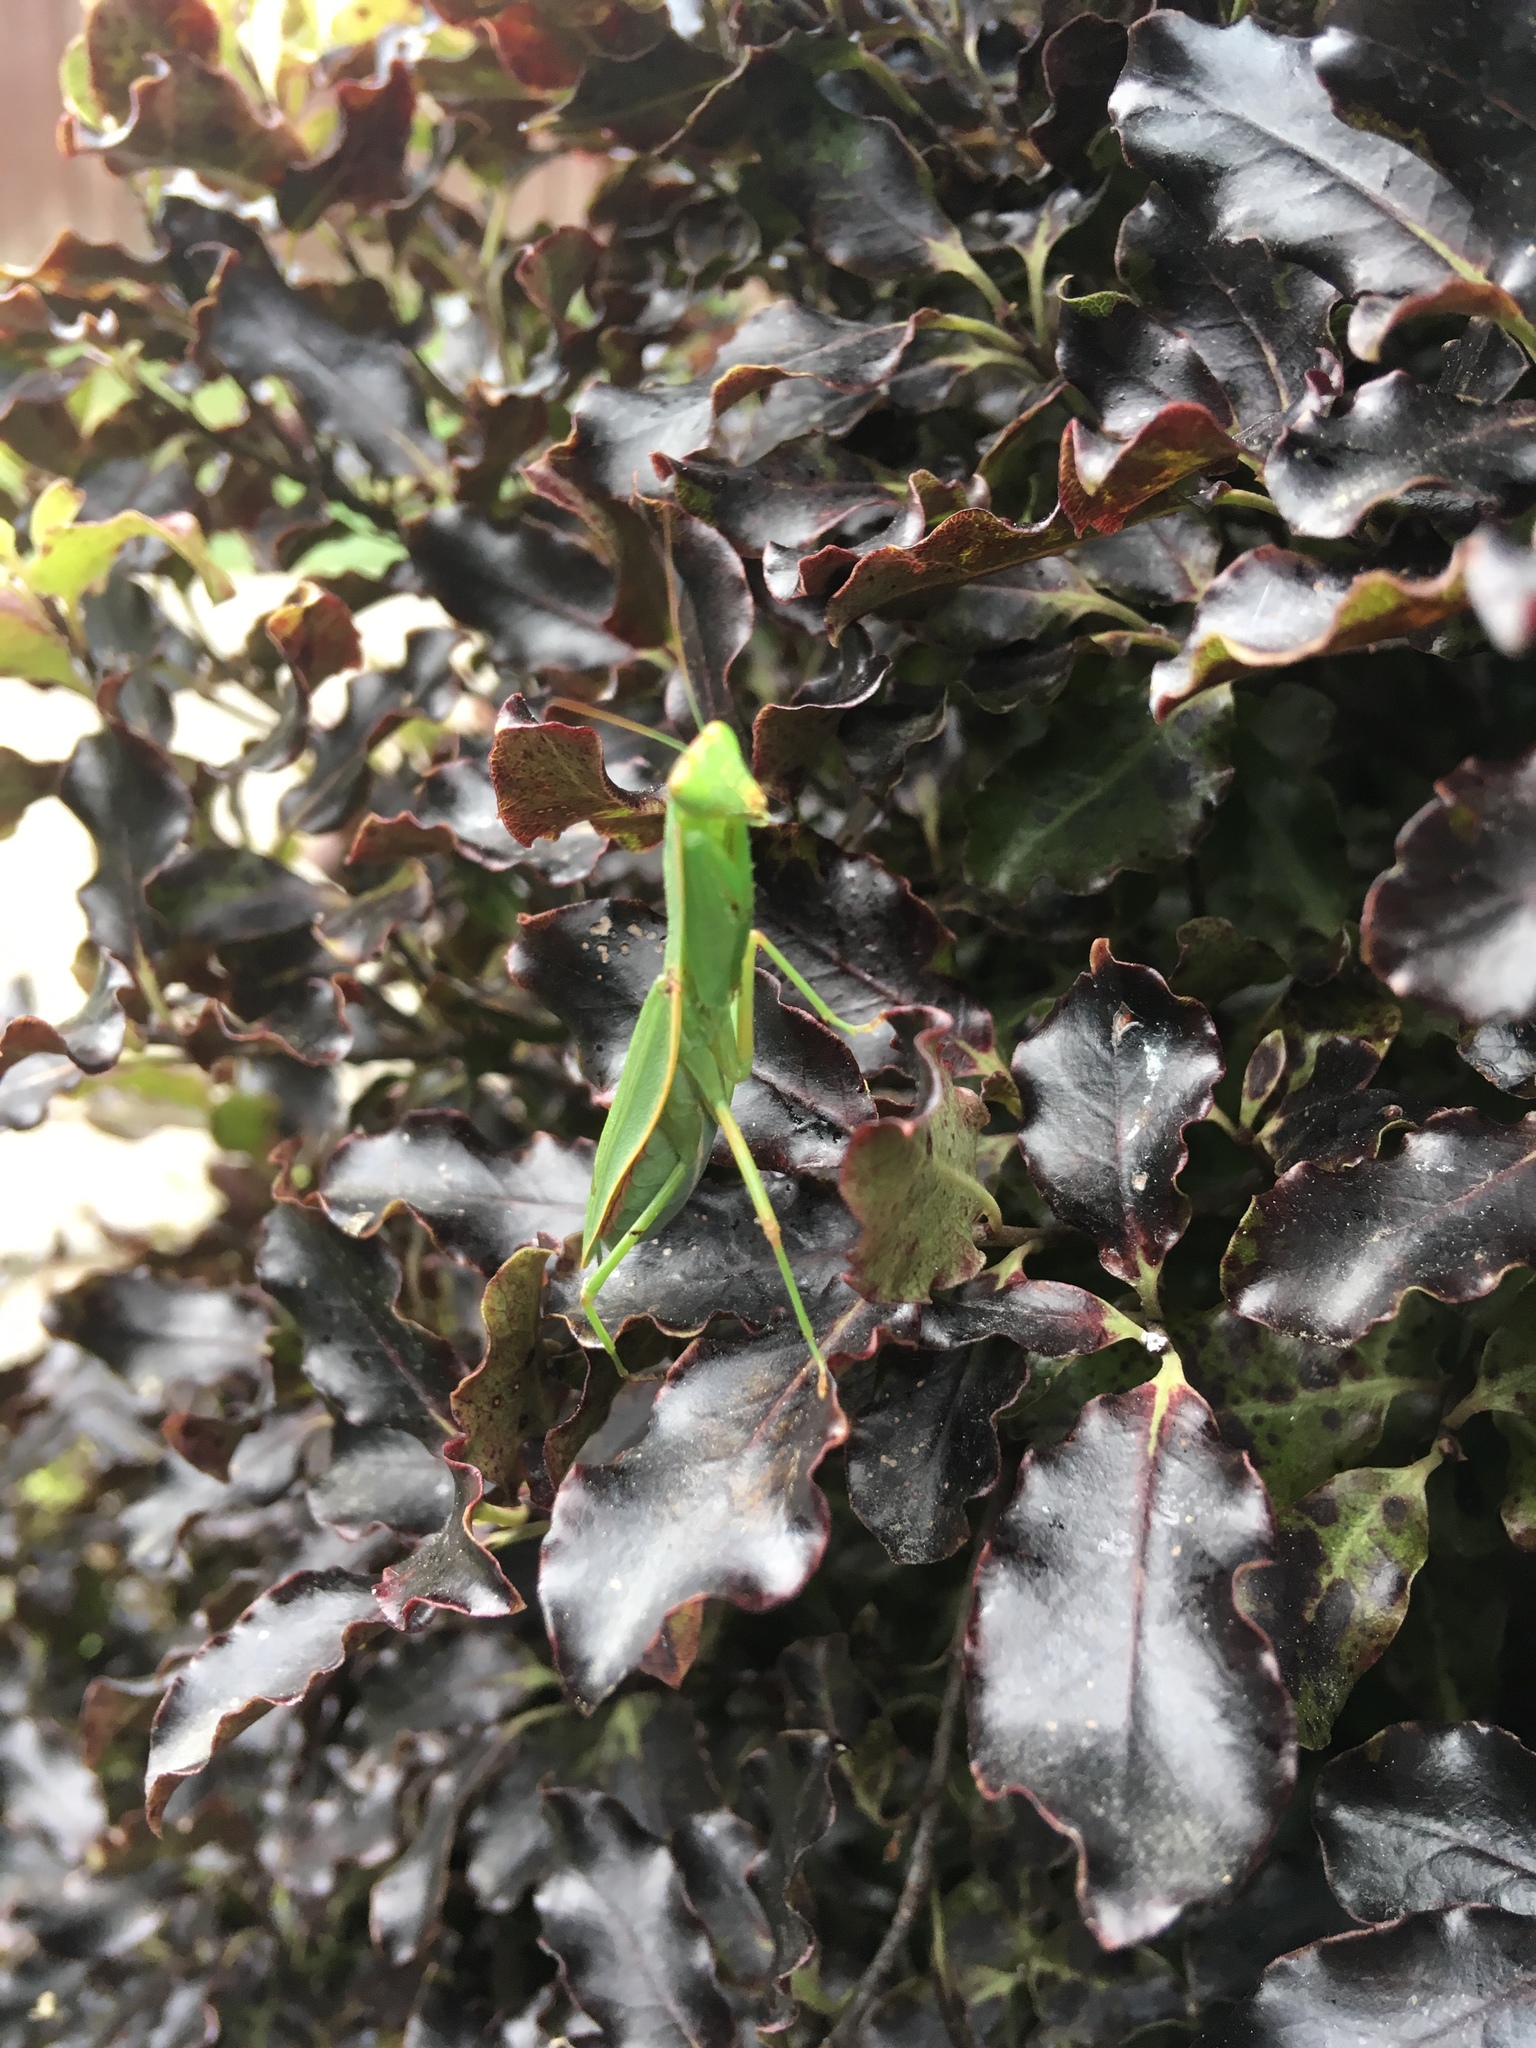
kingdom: Animalia
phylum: Arthropoda
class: Insecta
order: Mantodea
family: Mantidae
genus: Orthodera
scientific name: Orthodera novaezealandiae
